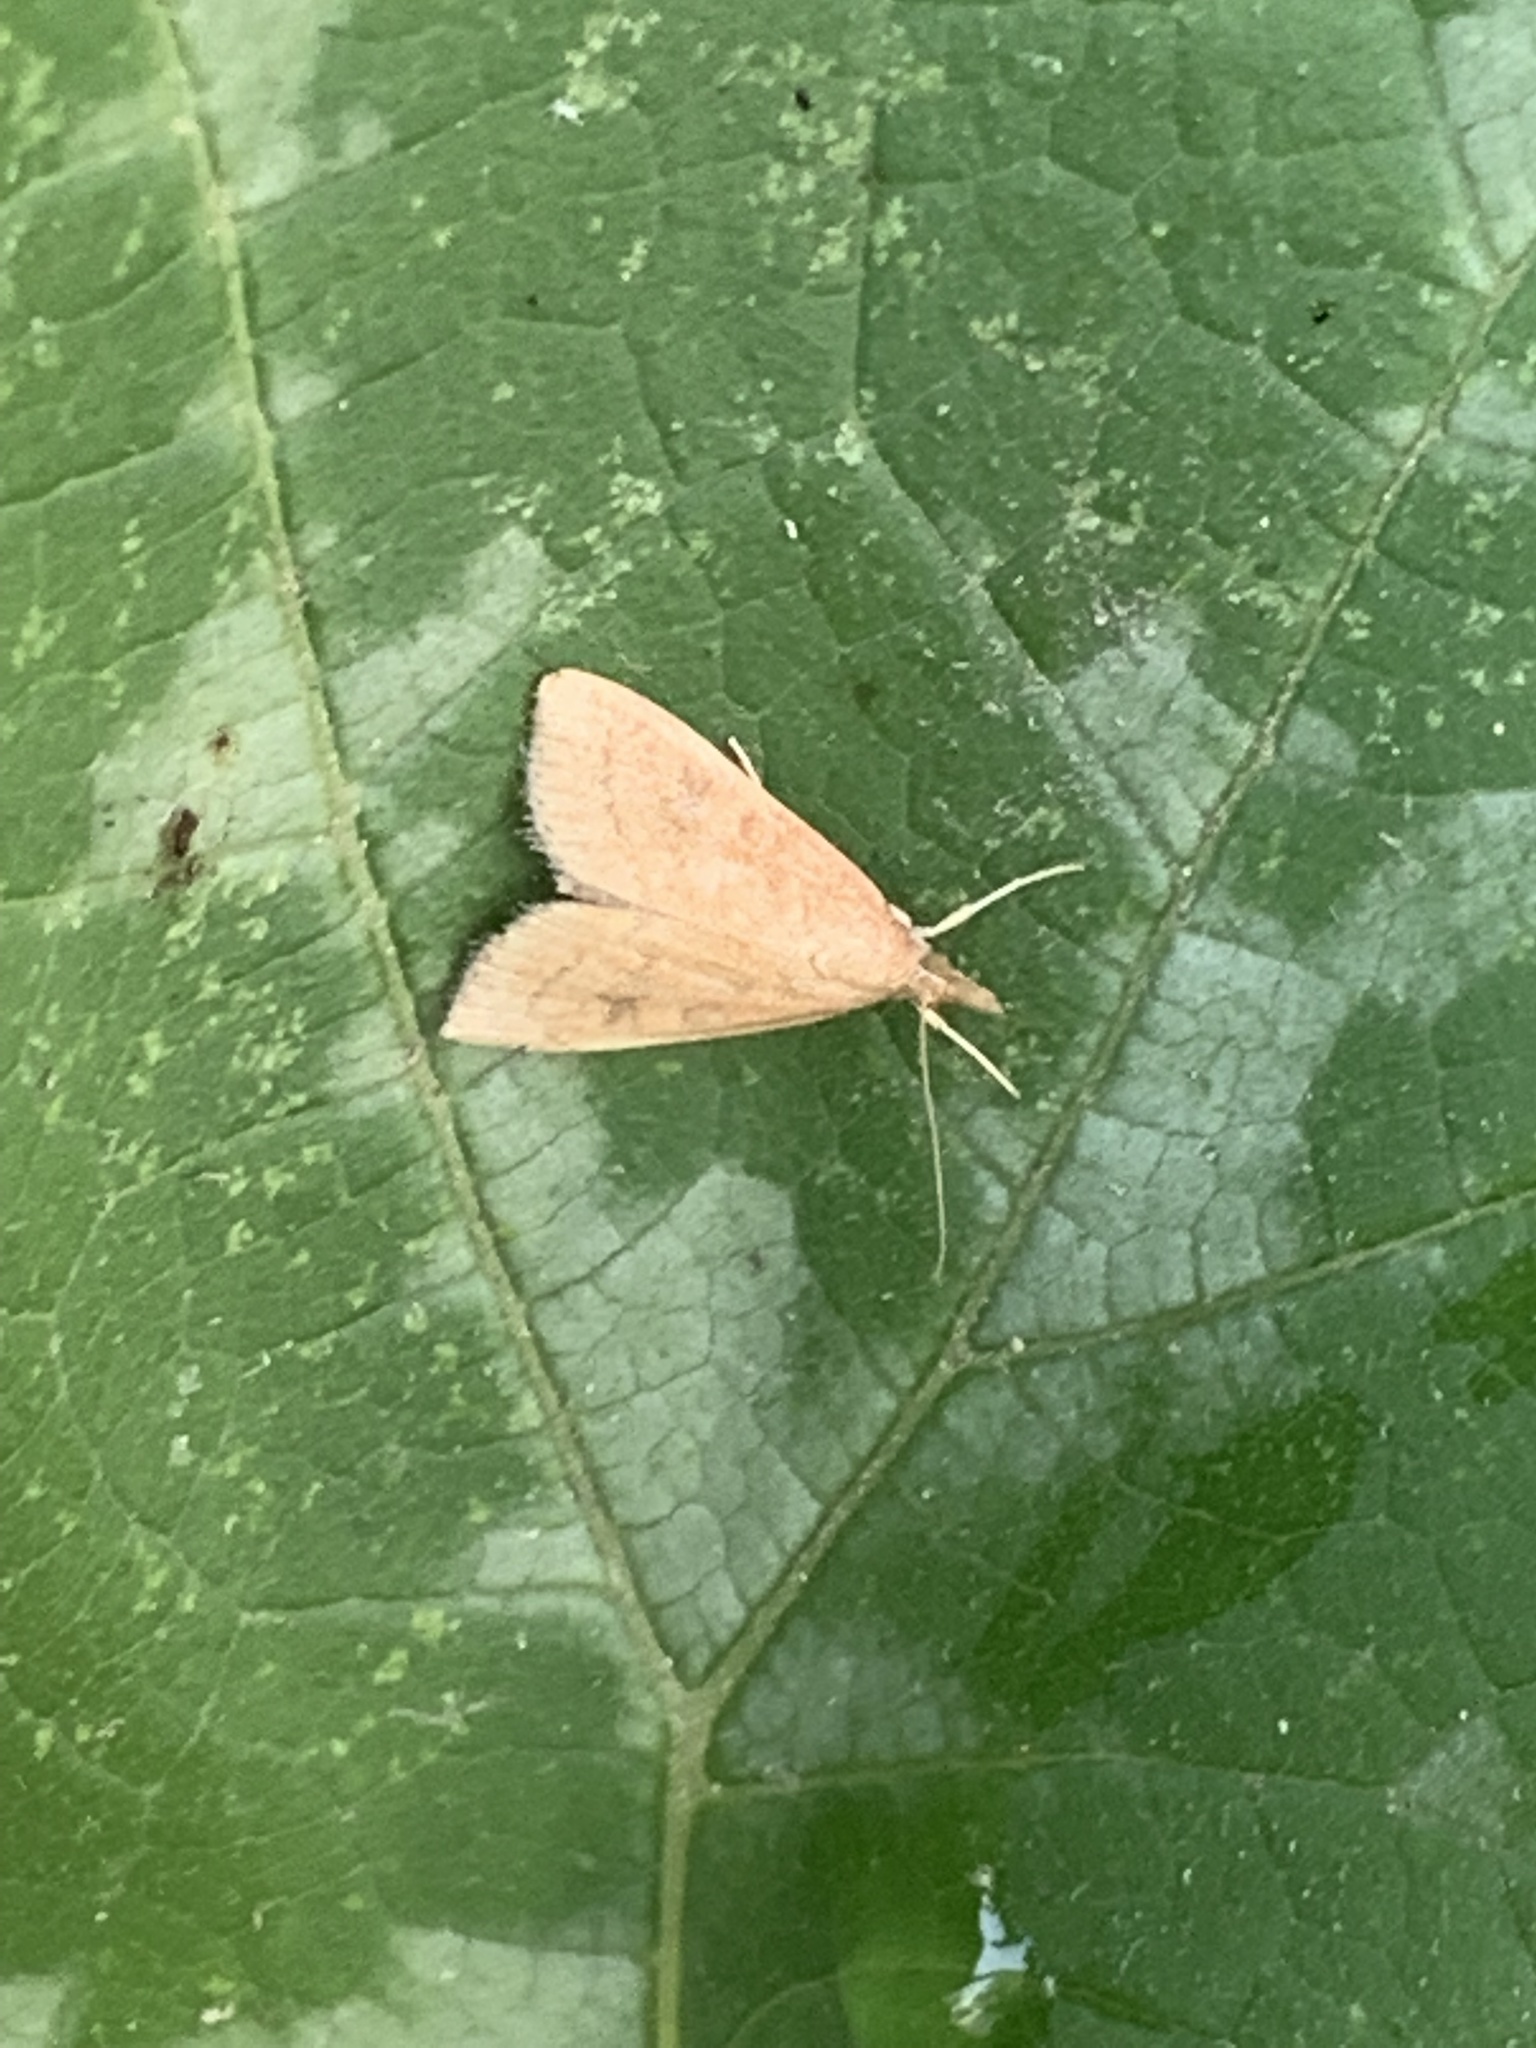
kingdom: Animalia
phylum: Arthropoda
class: Insecta
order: Lepidoptera
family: Crambidae
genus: Udea
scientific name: Udea rubigalis
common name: Celery leaftier moth
